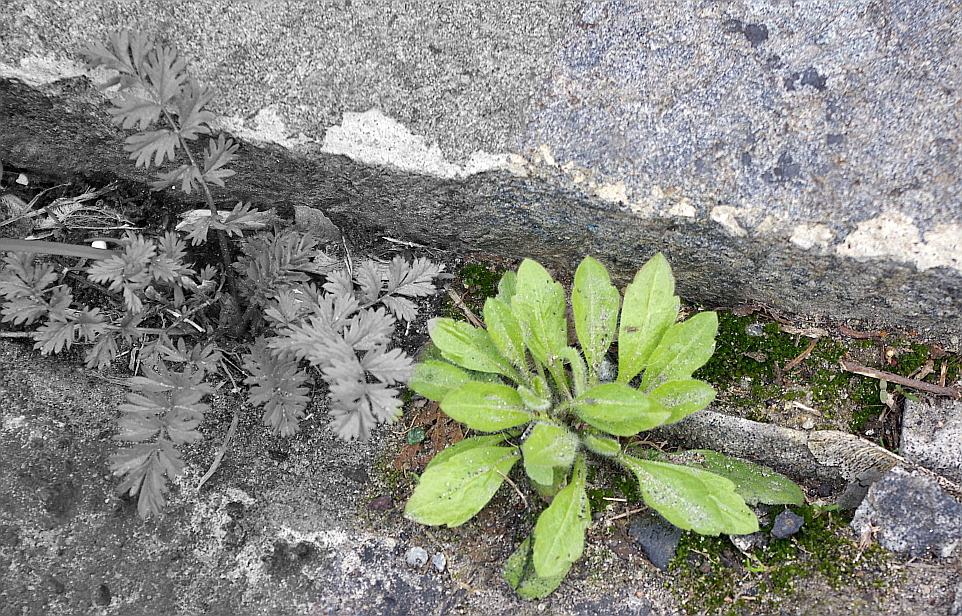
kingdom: Plantae
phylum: Tracheophyta
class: Magnoliopsida
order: Asterales
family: Asteraceae
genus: Erigeron
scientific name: Erigeron canadensis
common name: Canadian fleabane
